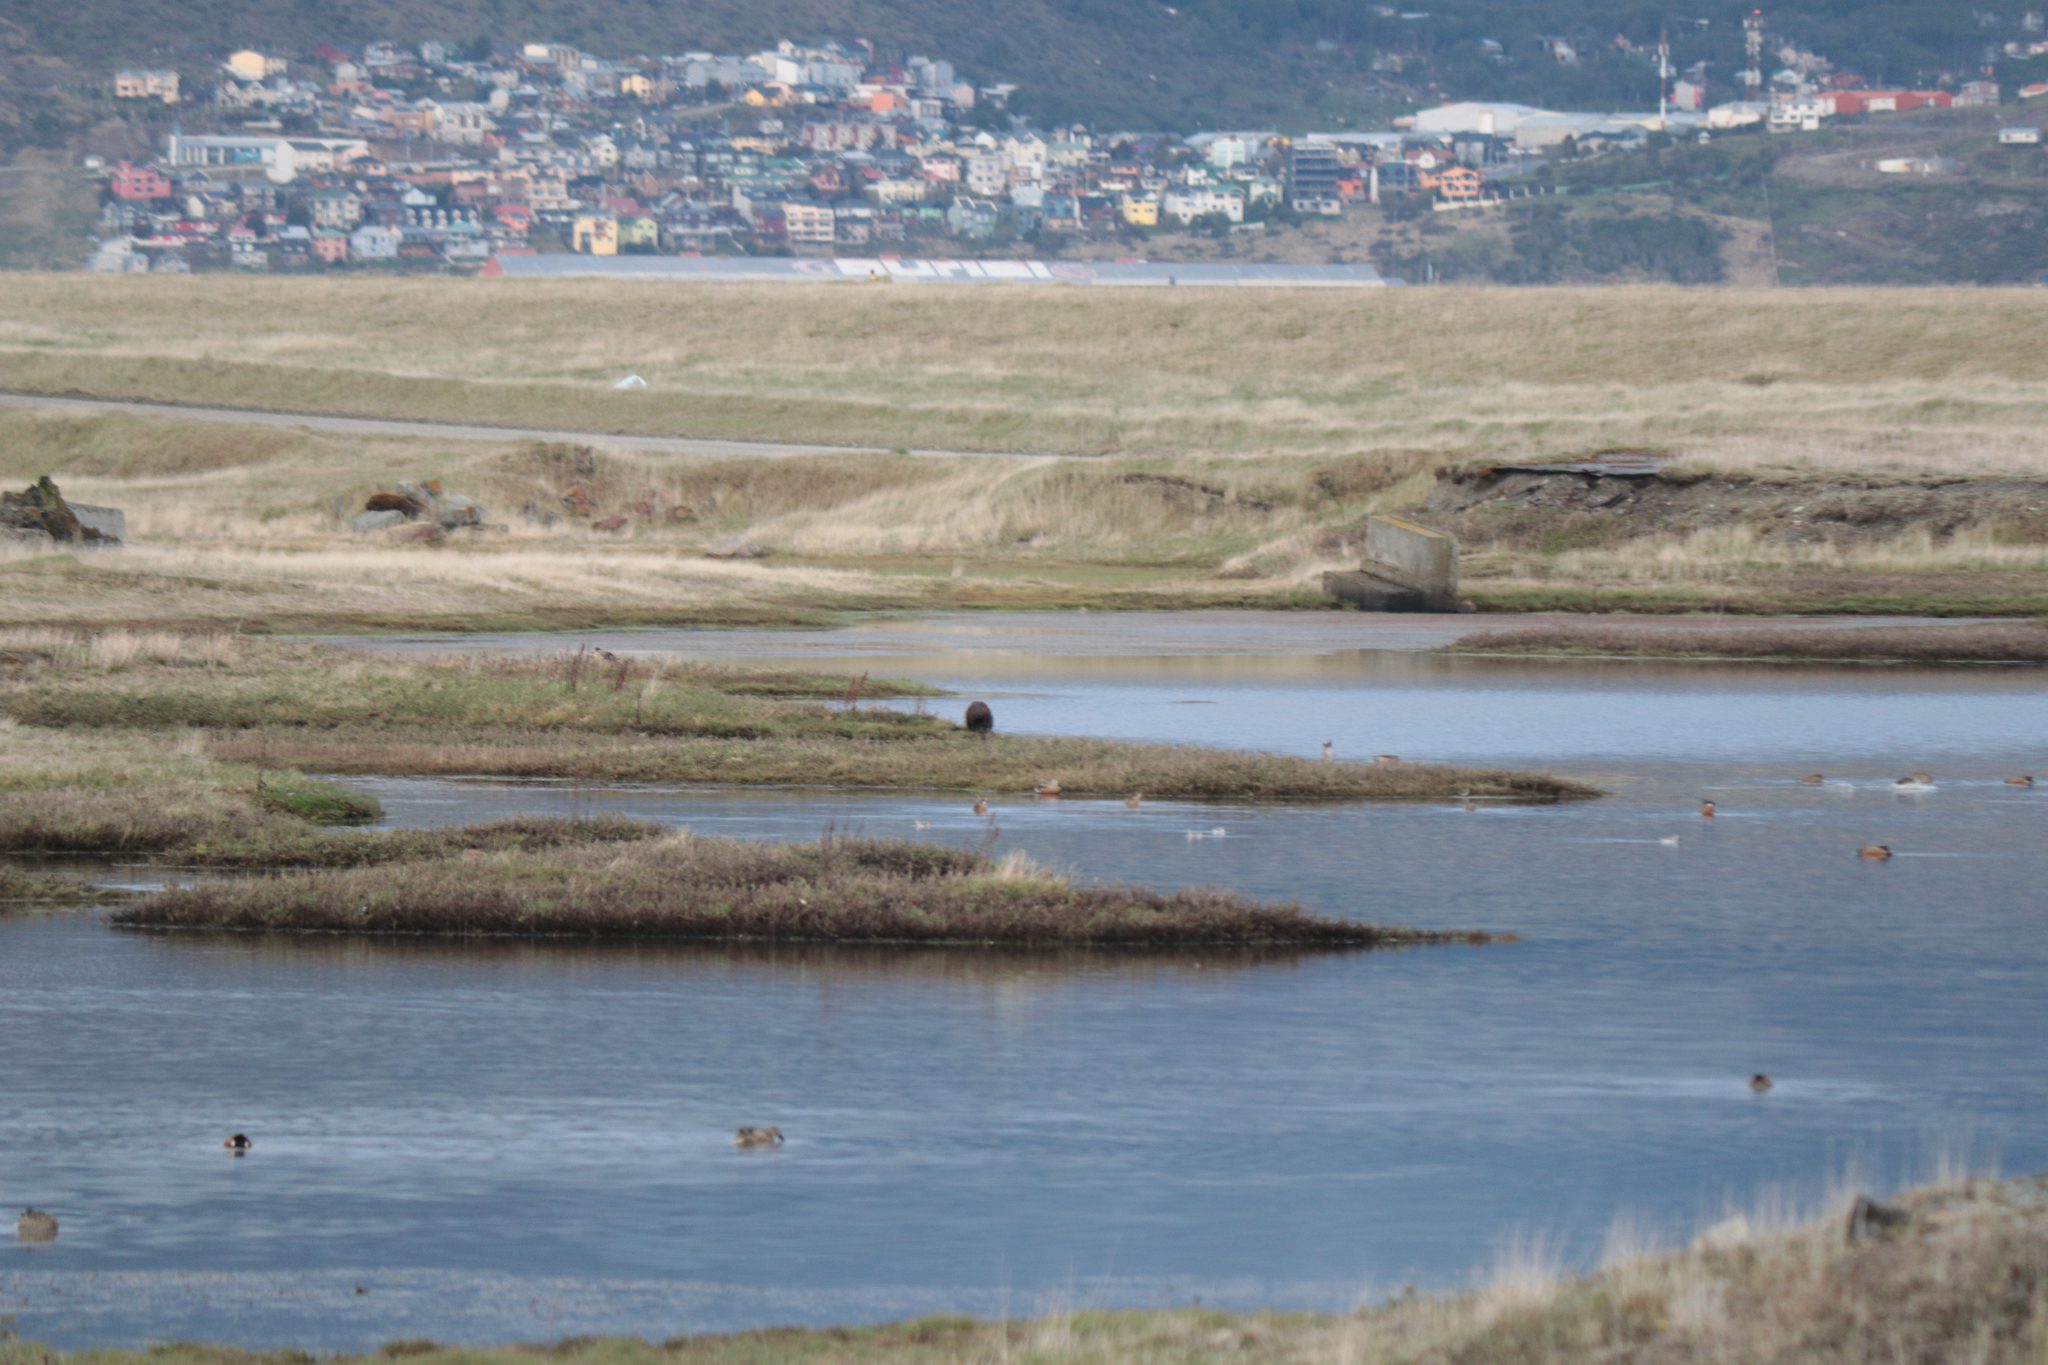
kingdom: Animalia
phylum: Chordata
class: Mammalia
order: Rodentia
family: Castoridae
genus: Castor
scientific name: Castor canadensis
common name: American beaver
